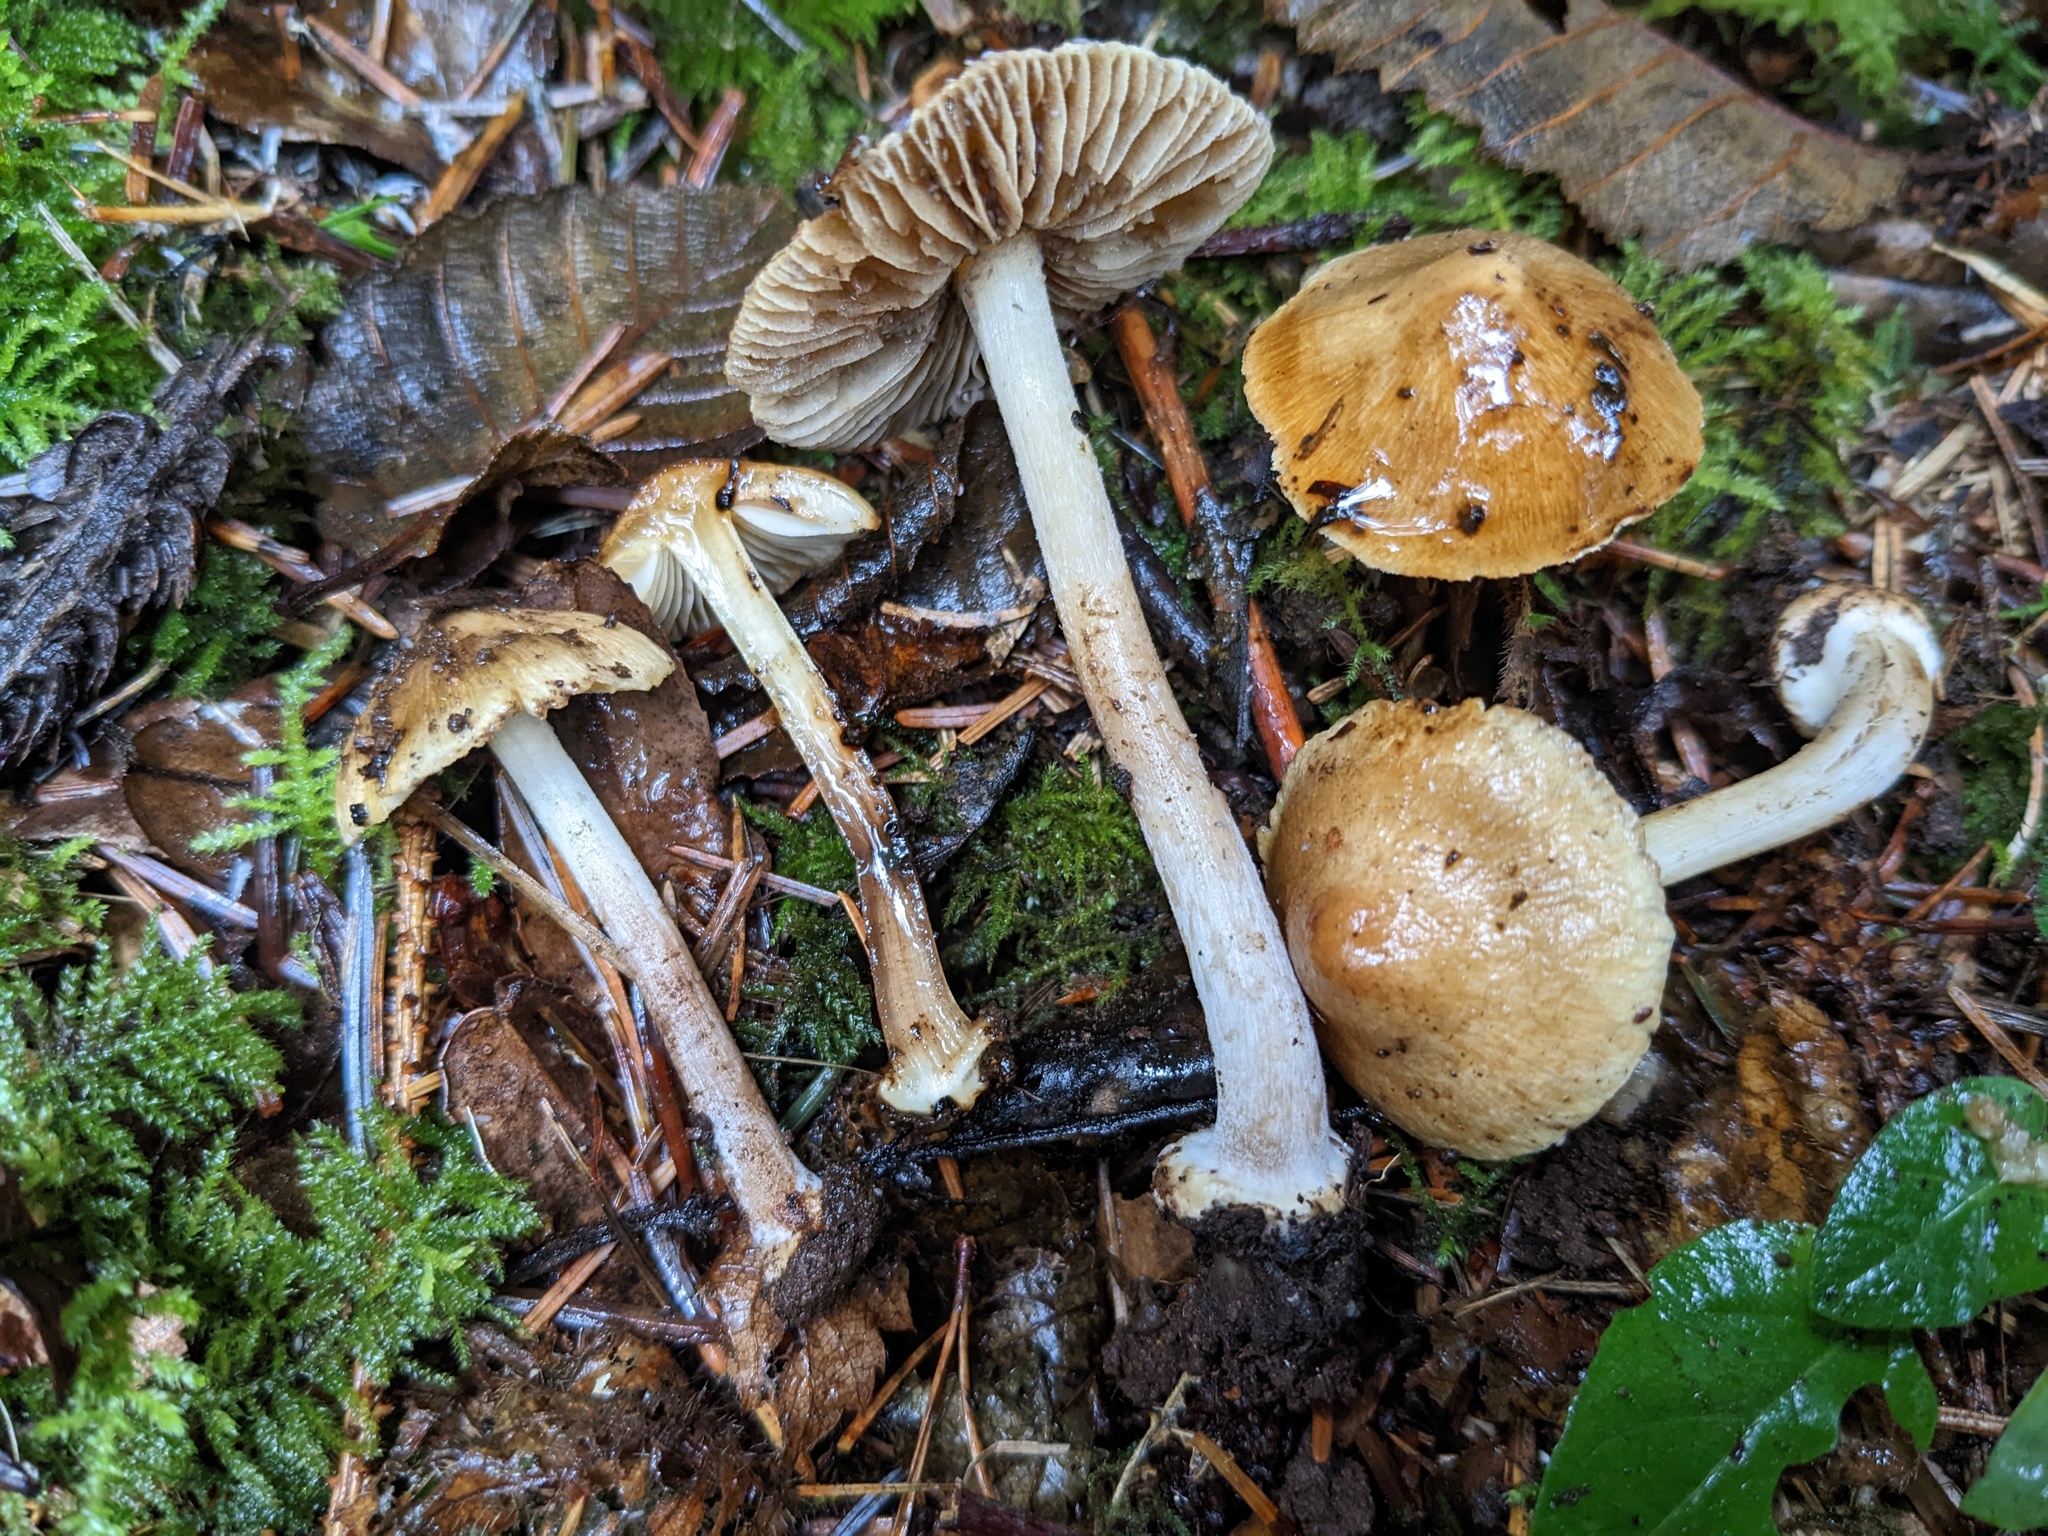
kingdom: Fungi
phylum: Basidiomycota
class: Agaricomycetes
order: Agaricales
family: Inocybaceae
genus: Pseudosperma
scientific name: Pseudosperma sororium
